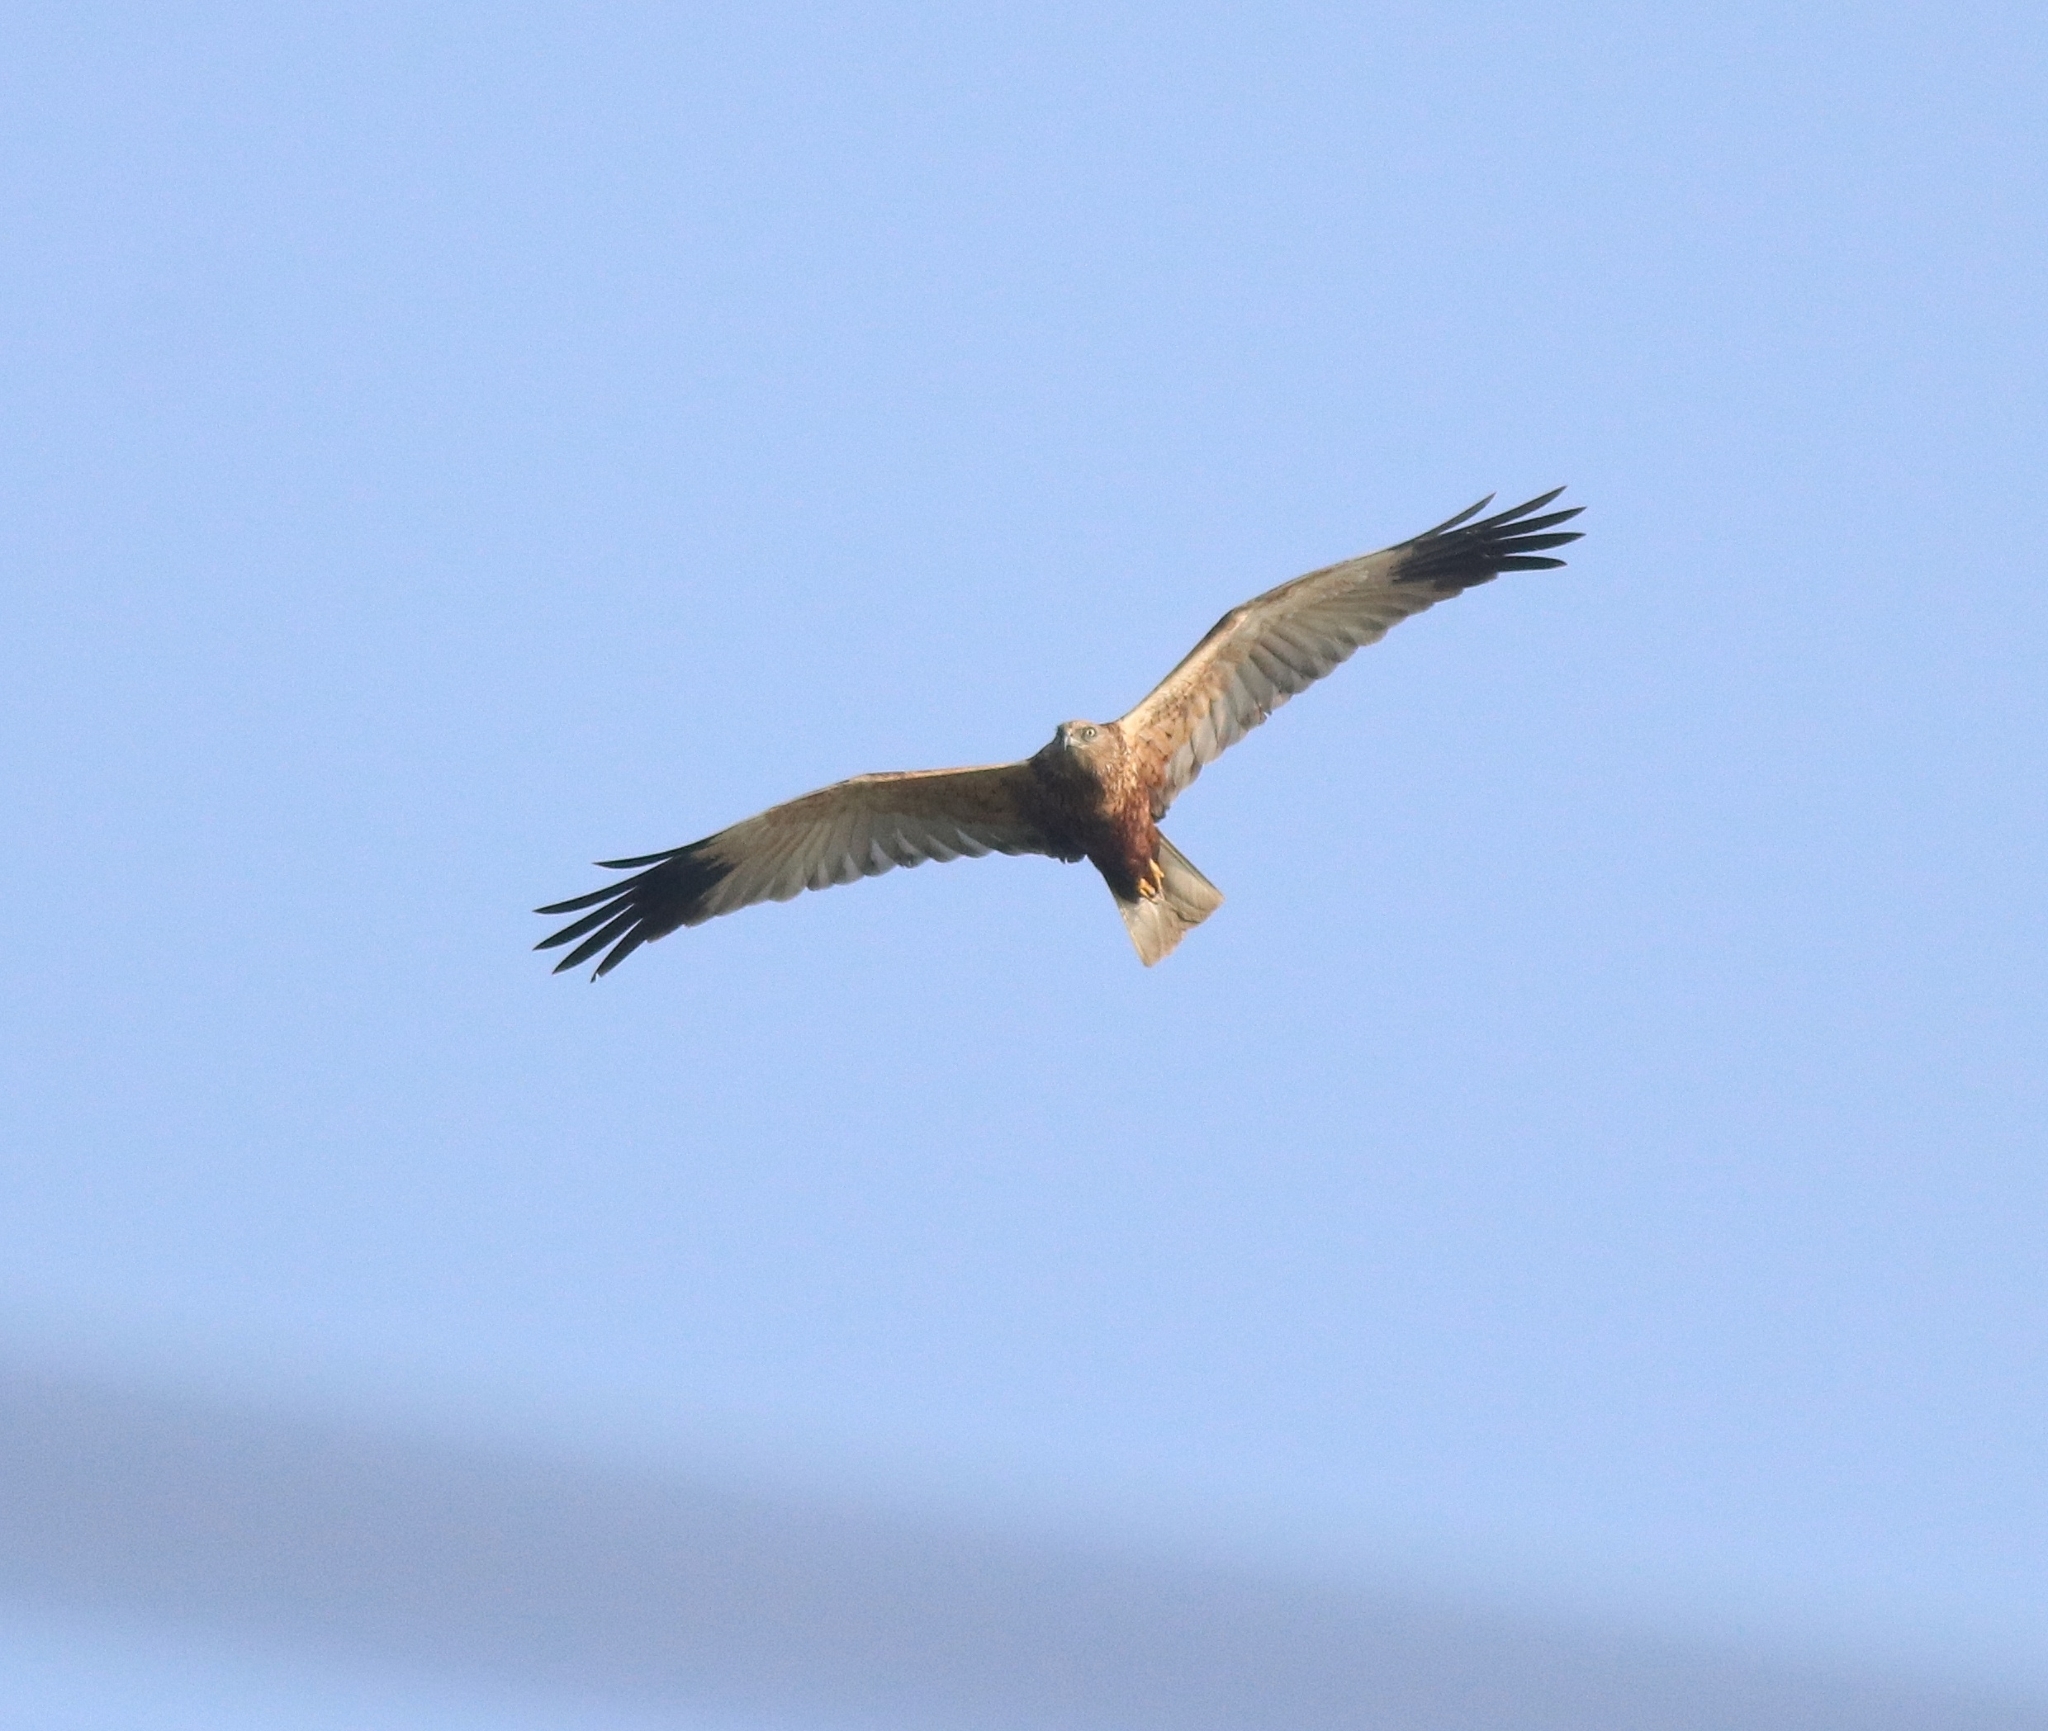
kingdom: Animalia
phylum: Chordata
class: Aves
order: Accipitriformes
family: Accipitridae
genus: Circus
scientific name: Circus aeruginosus
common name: Western marsh harrier
